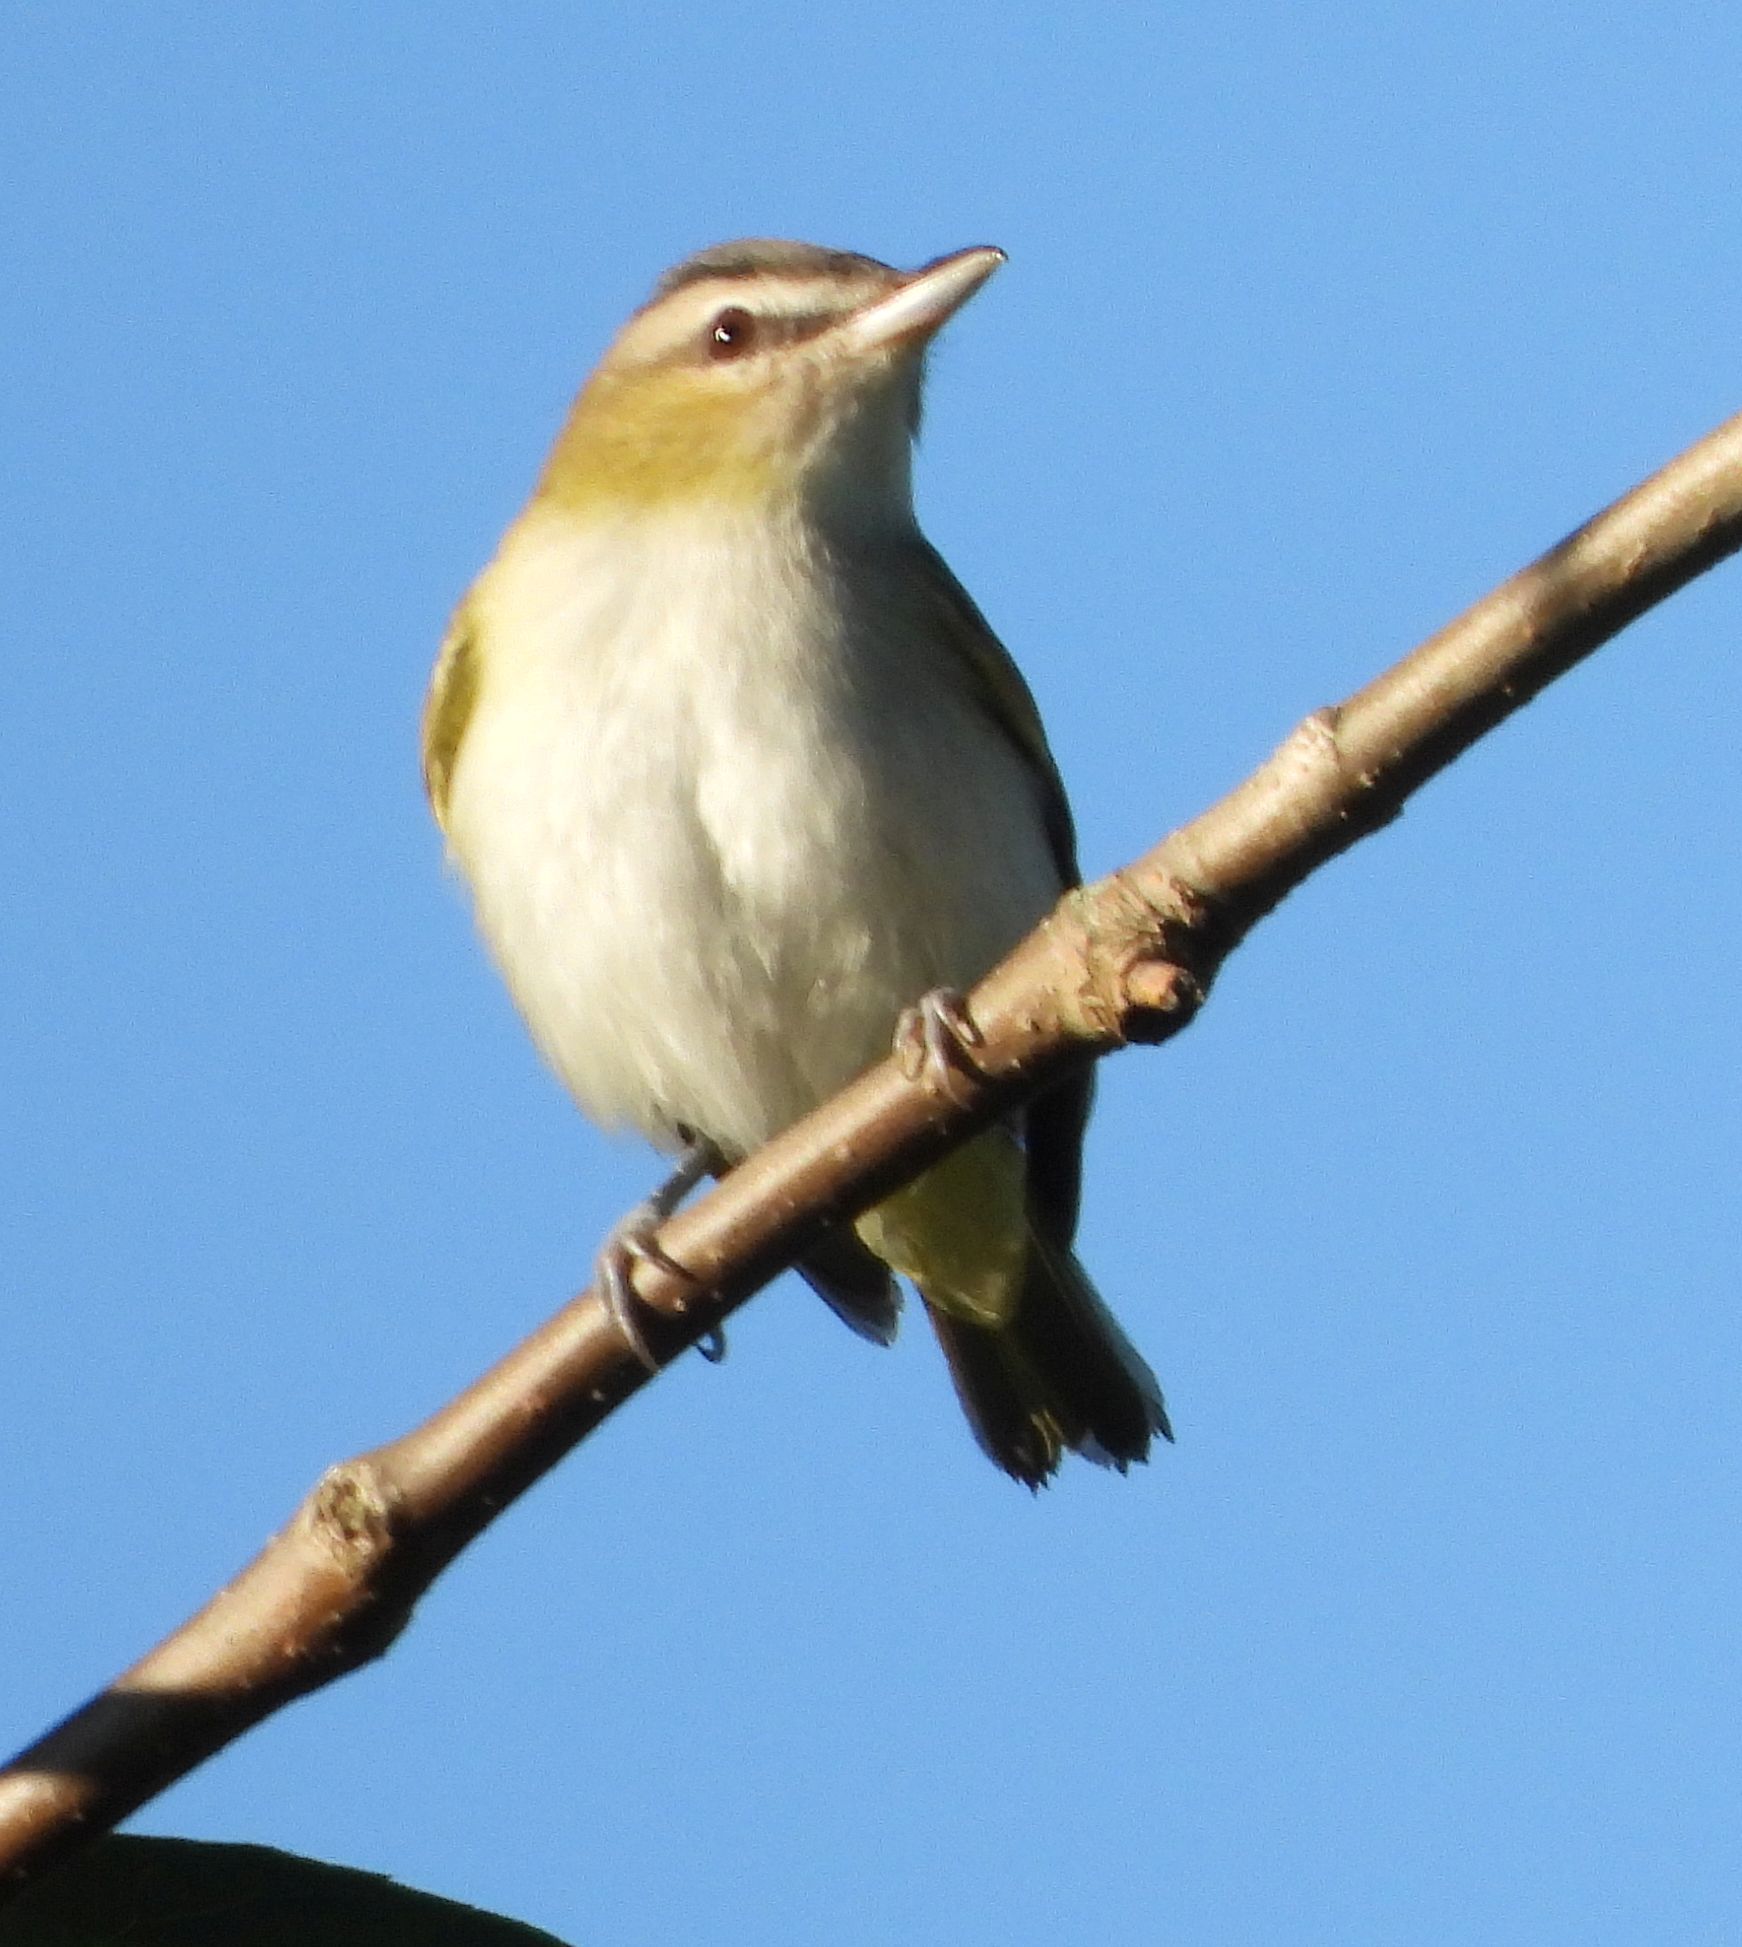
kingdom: Animalia
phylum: Chordata
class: Aves
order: Passeriformes
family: Vireonidae
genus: Vireo
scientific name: Vireo olivaceus
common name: Red-eyed vireo
